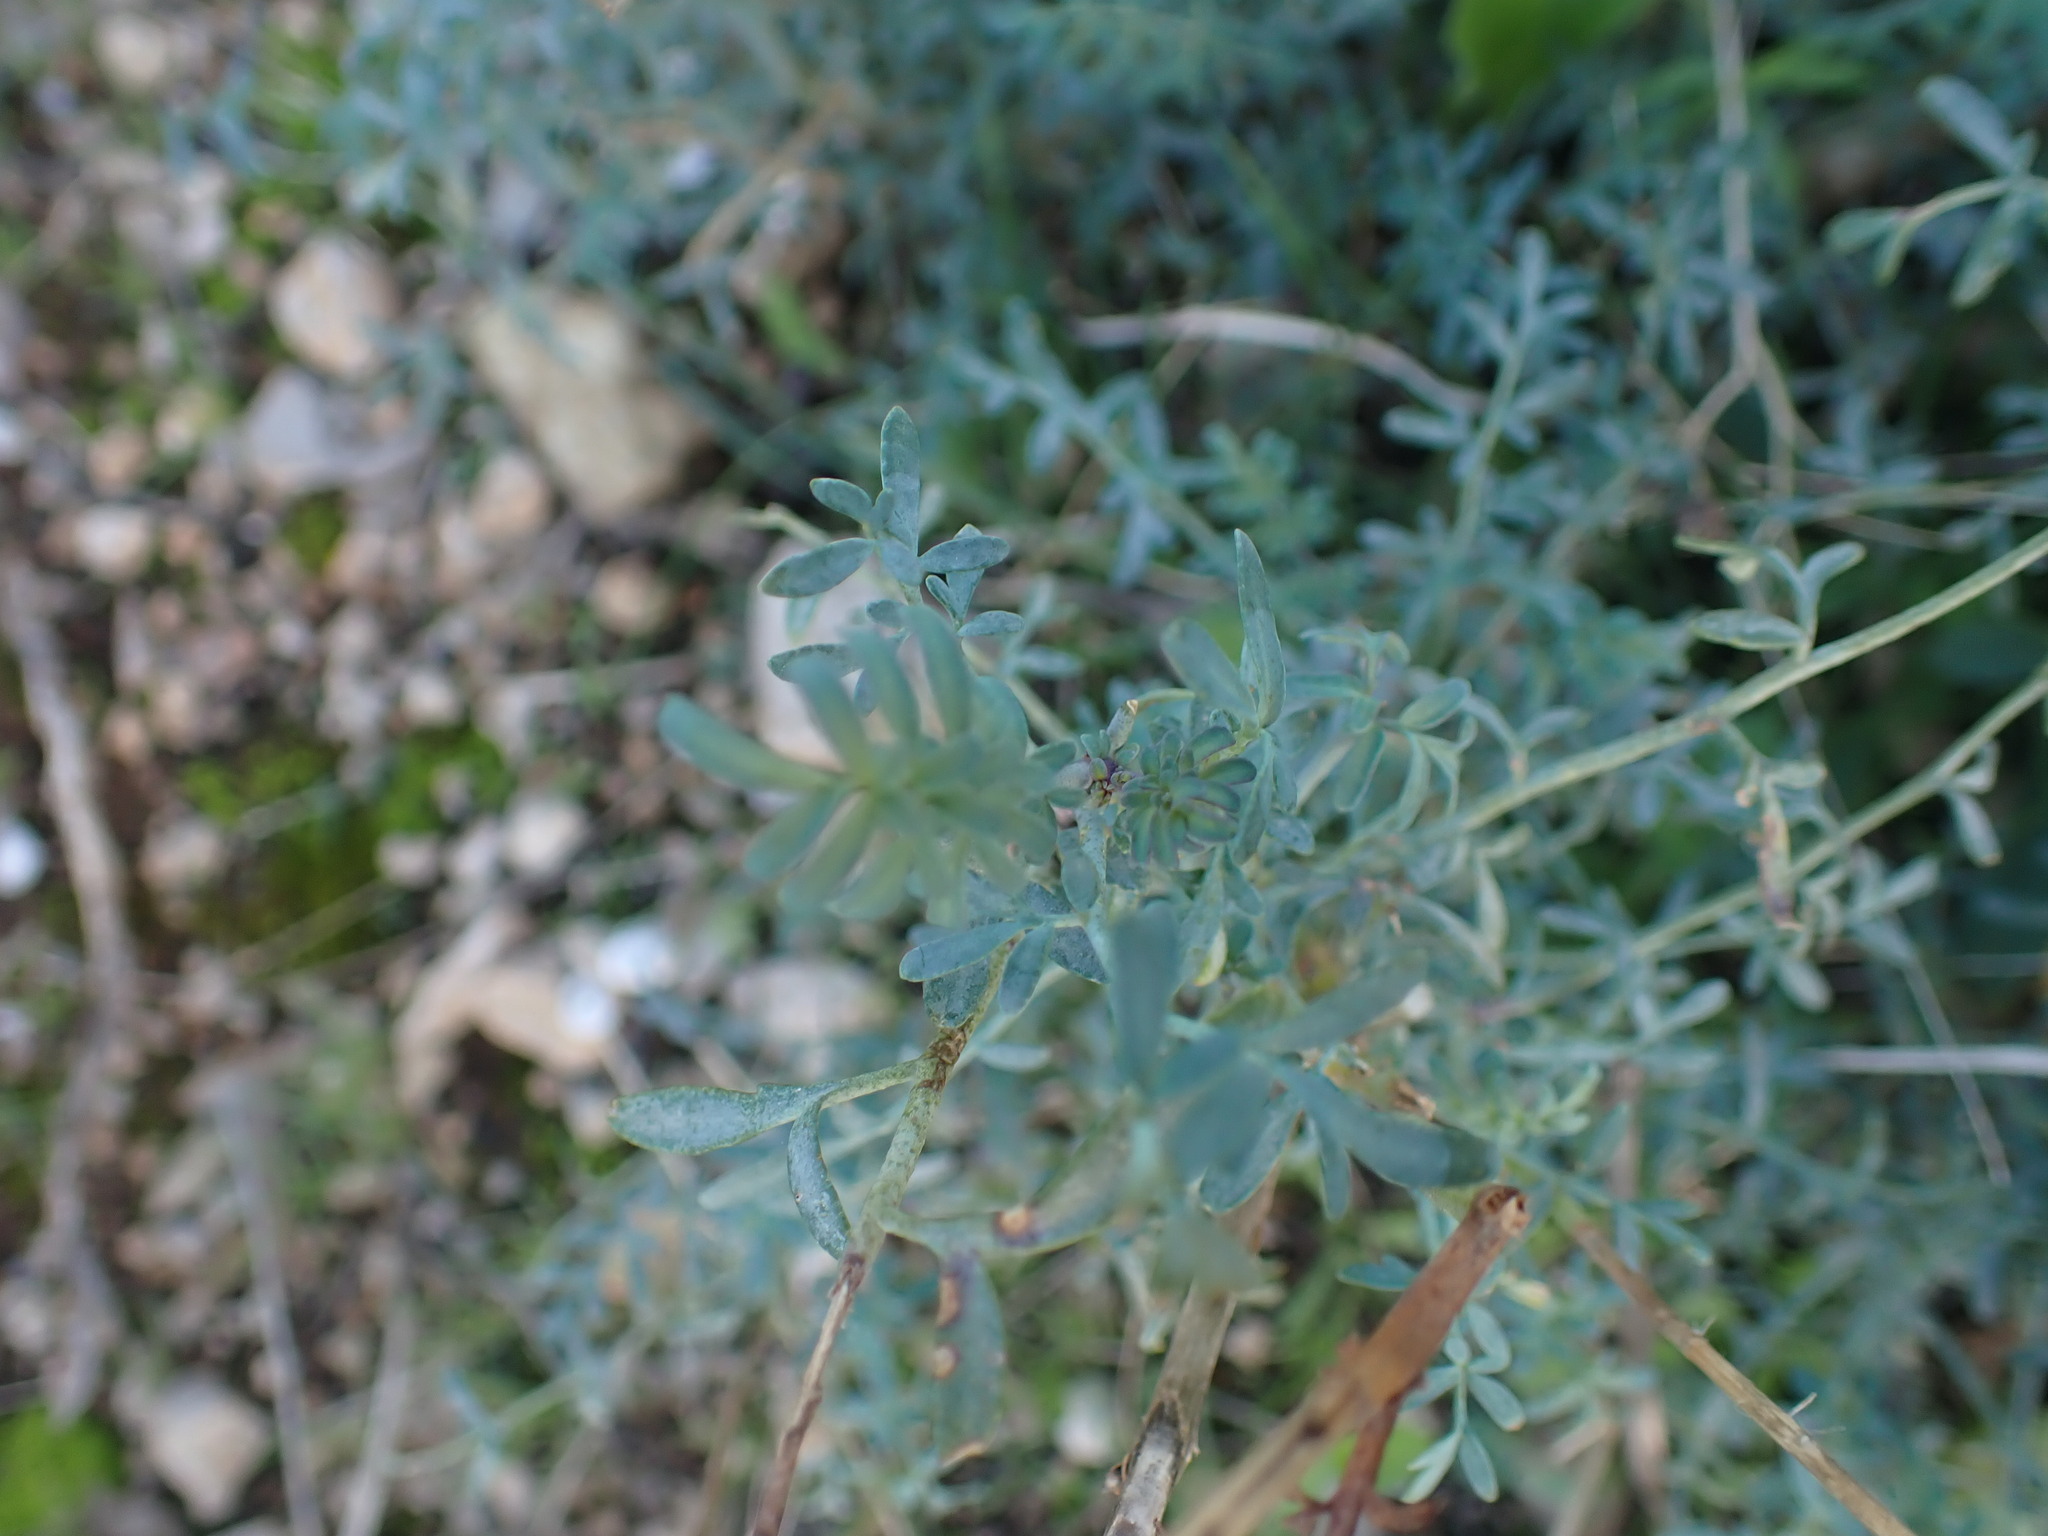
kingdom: Plantae
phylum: Tracheophyta
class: Magnoliopsida
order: Sapindales
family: Rutaceae
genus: Ruta
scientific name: Ruta angustifolia
